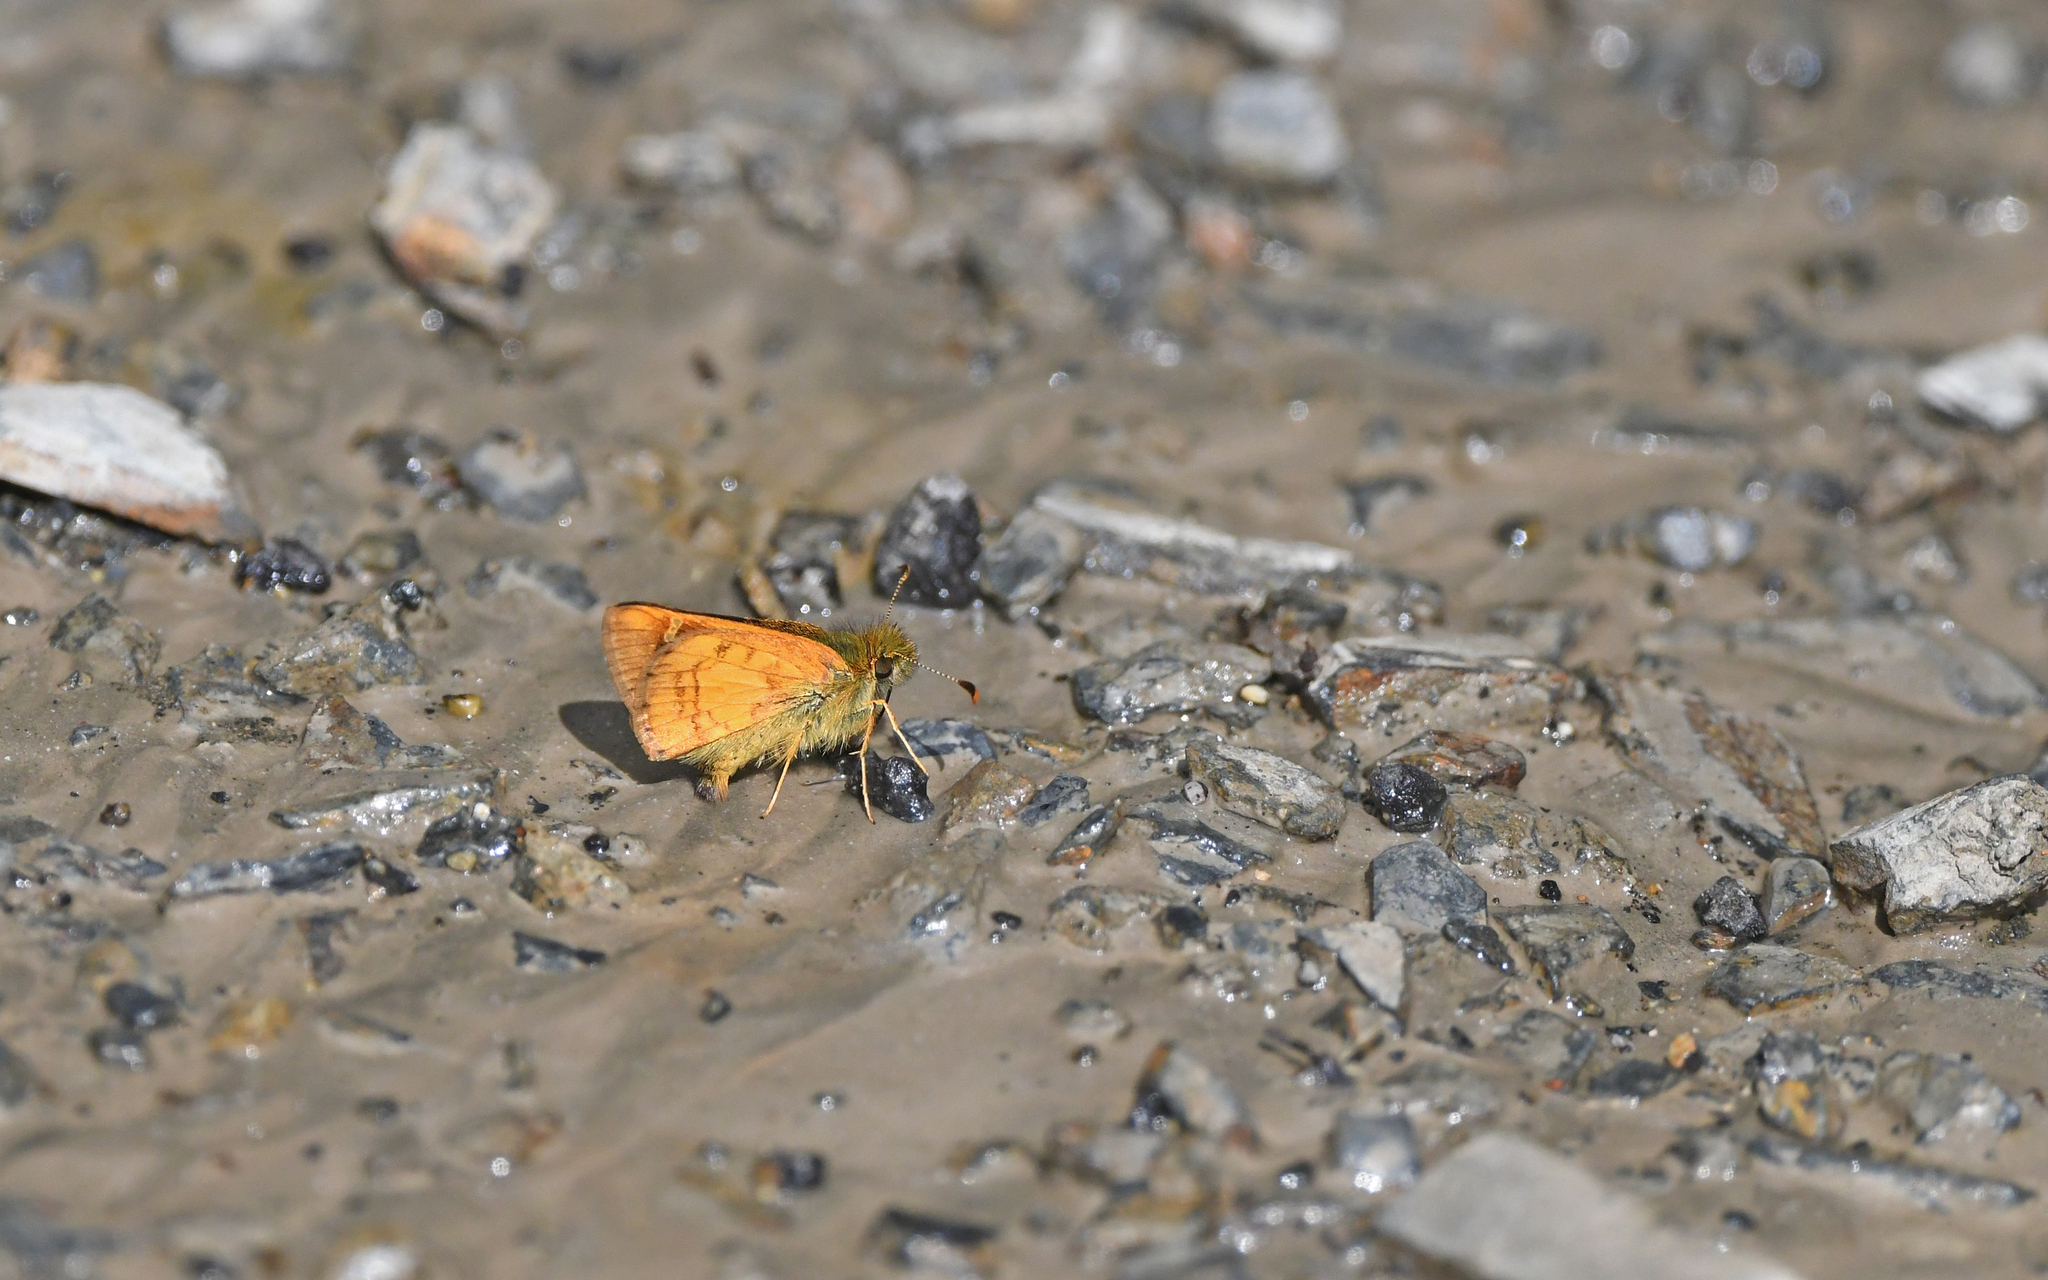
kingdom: Animalia
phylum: Arthropoda
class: Insecta
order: Lepidoptera
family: Hesperiidae
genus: Dalla
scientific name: Dalla genes
